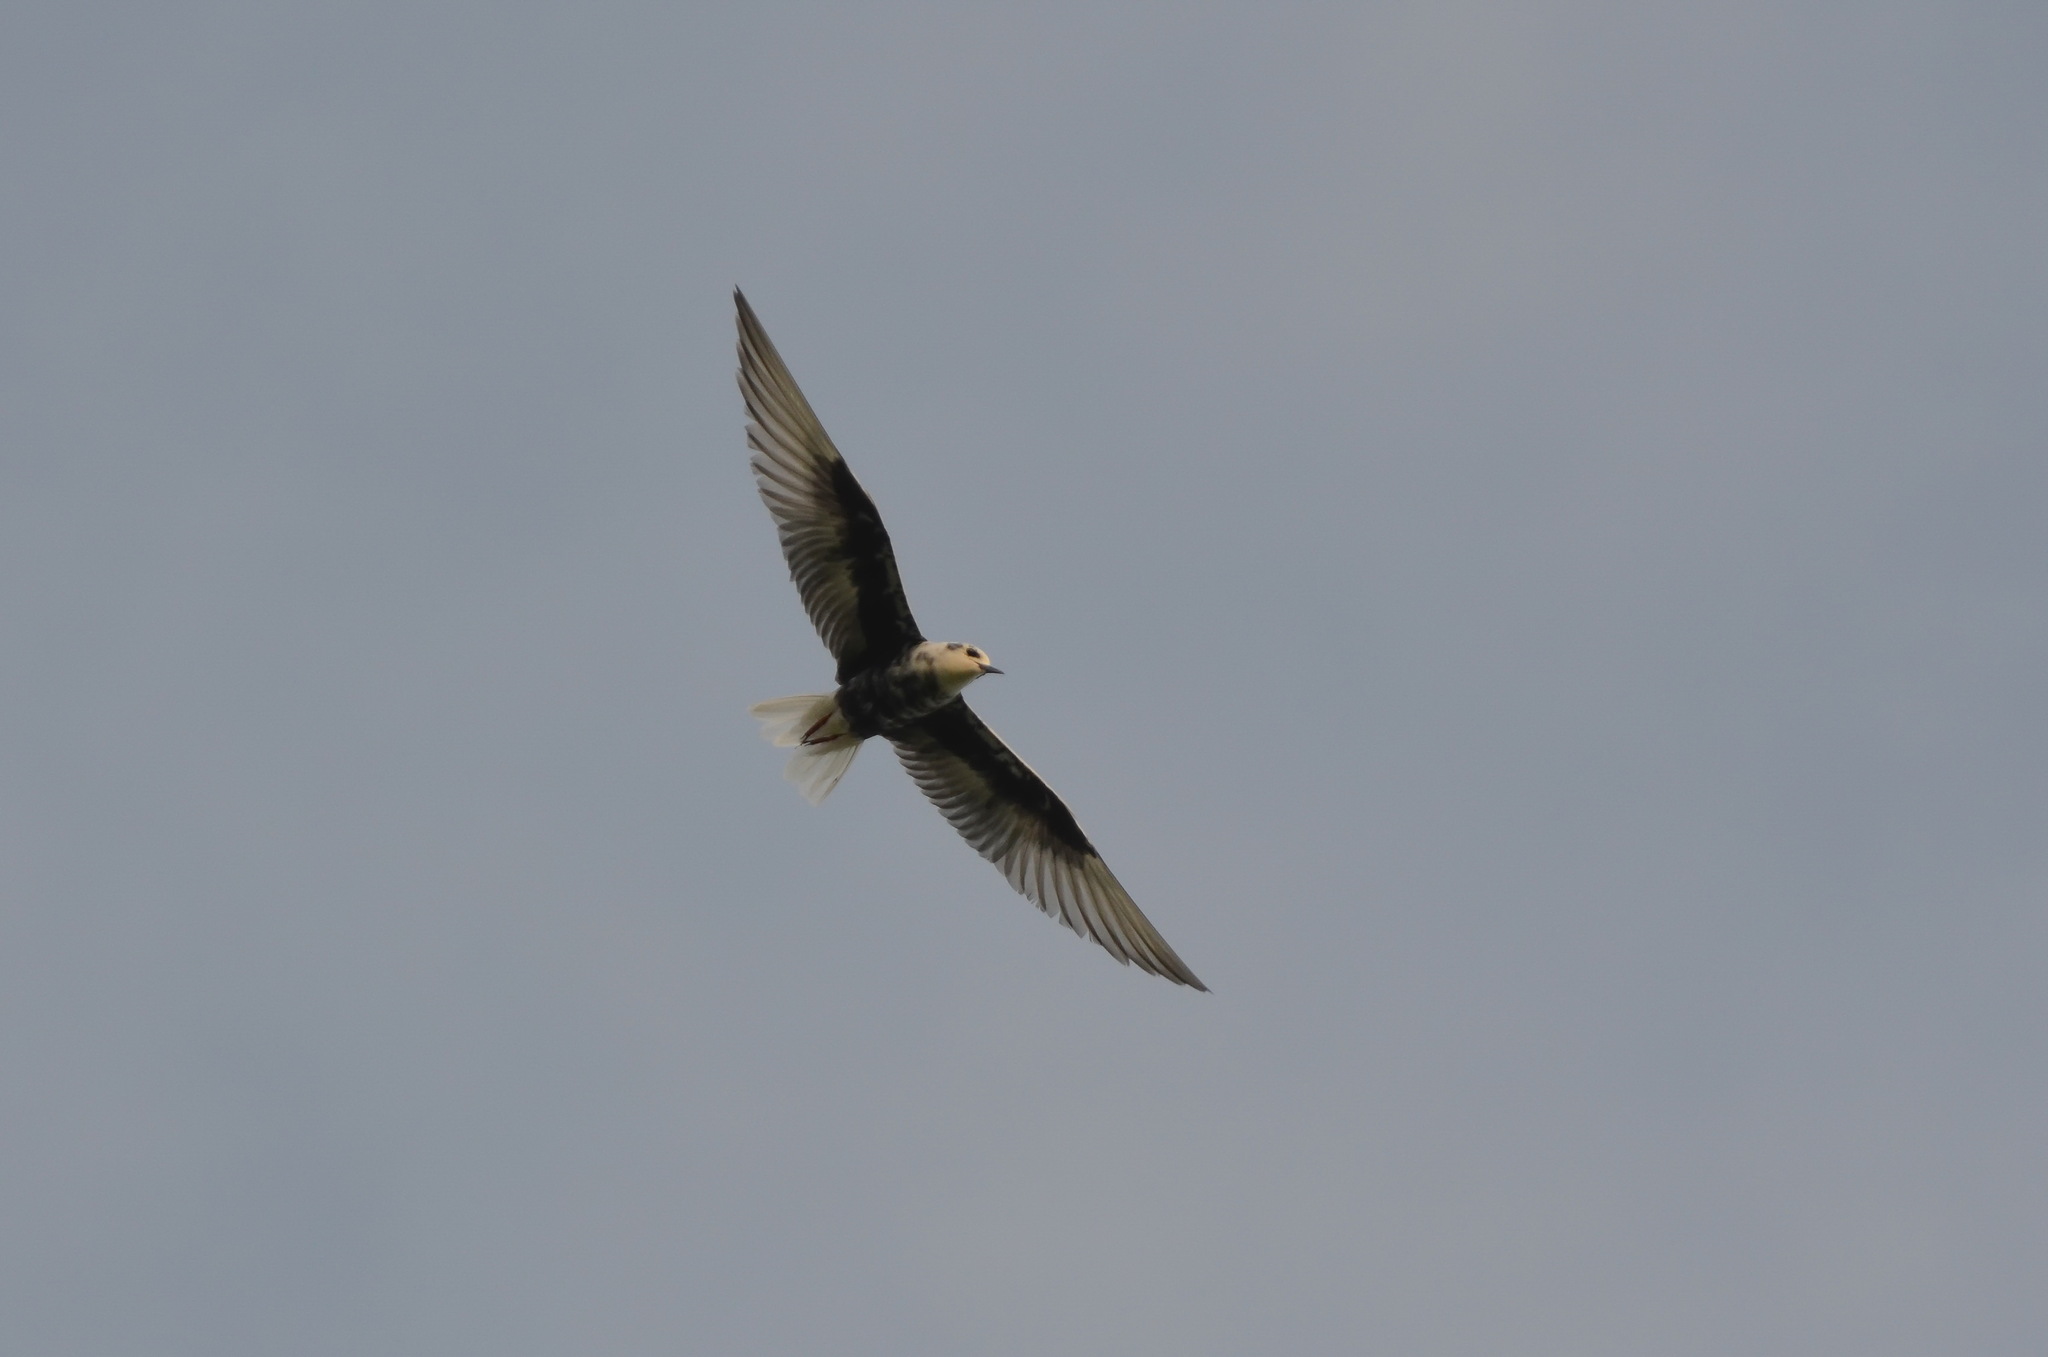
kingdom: Animalia
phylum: Chordata
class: Aves
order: Charadriiformes
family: Laridae
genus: Chlidonias
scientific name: Chlidonias leucopterus
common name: White-winged tern
